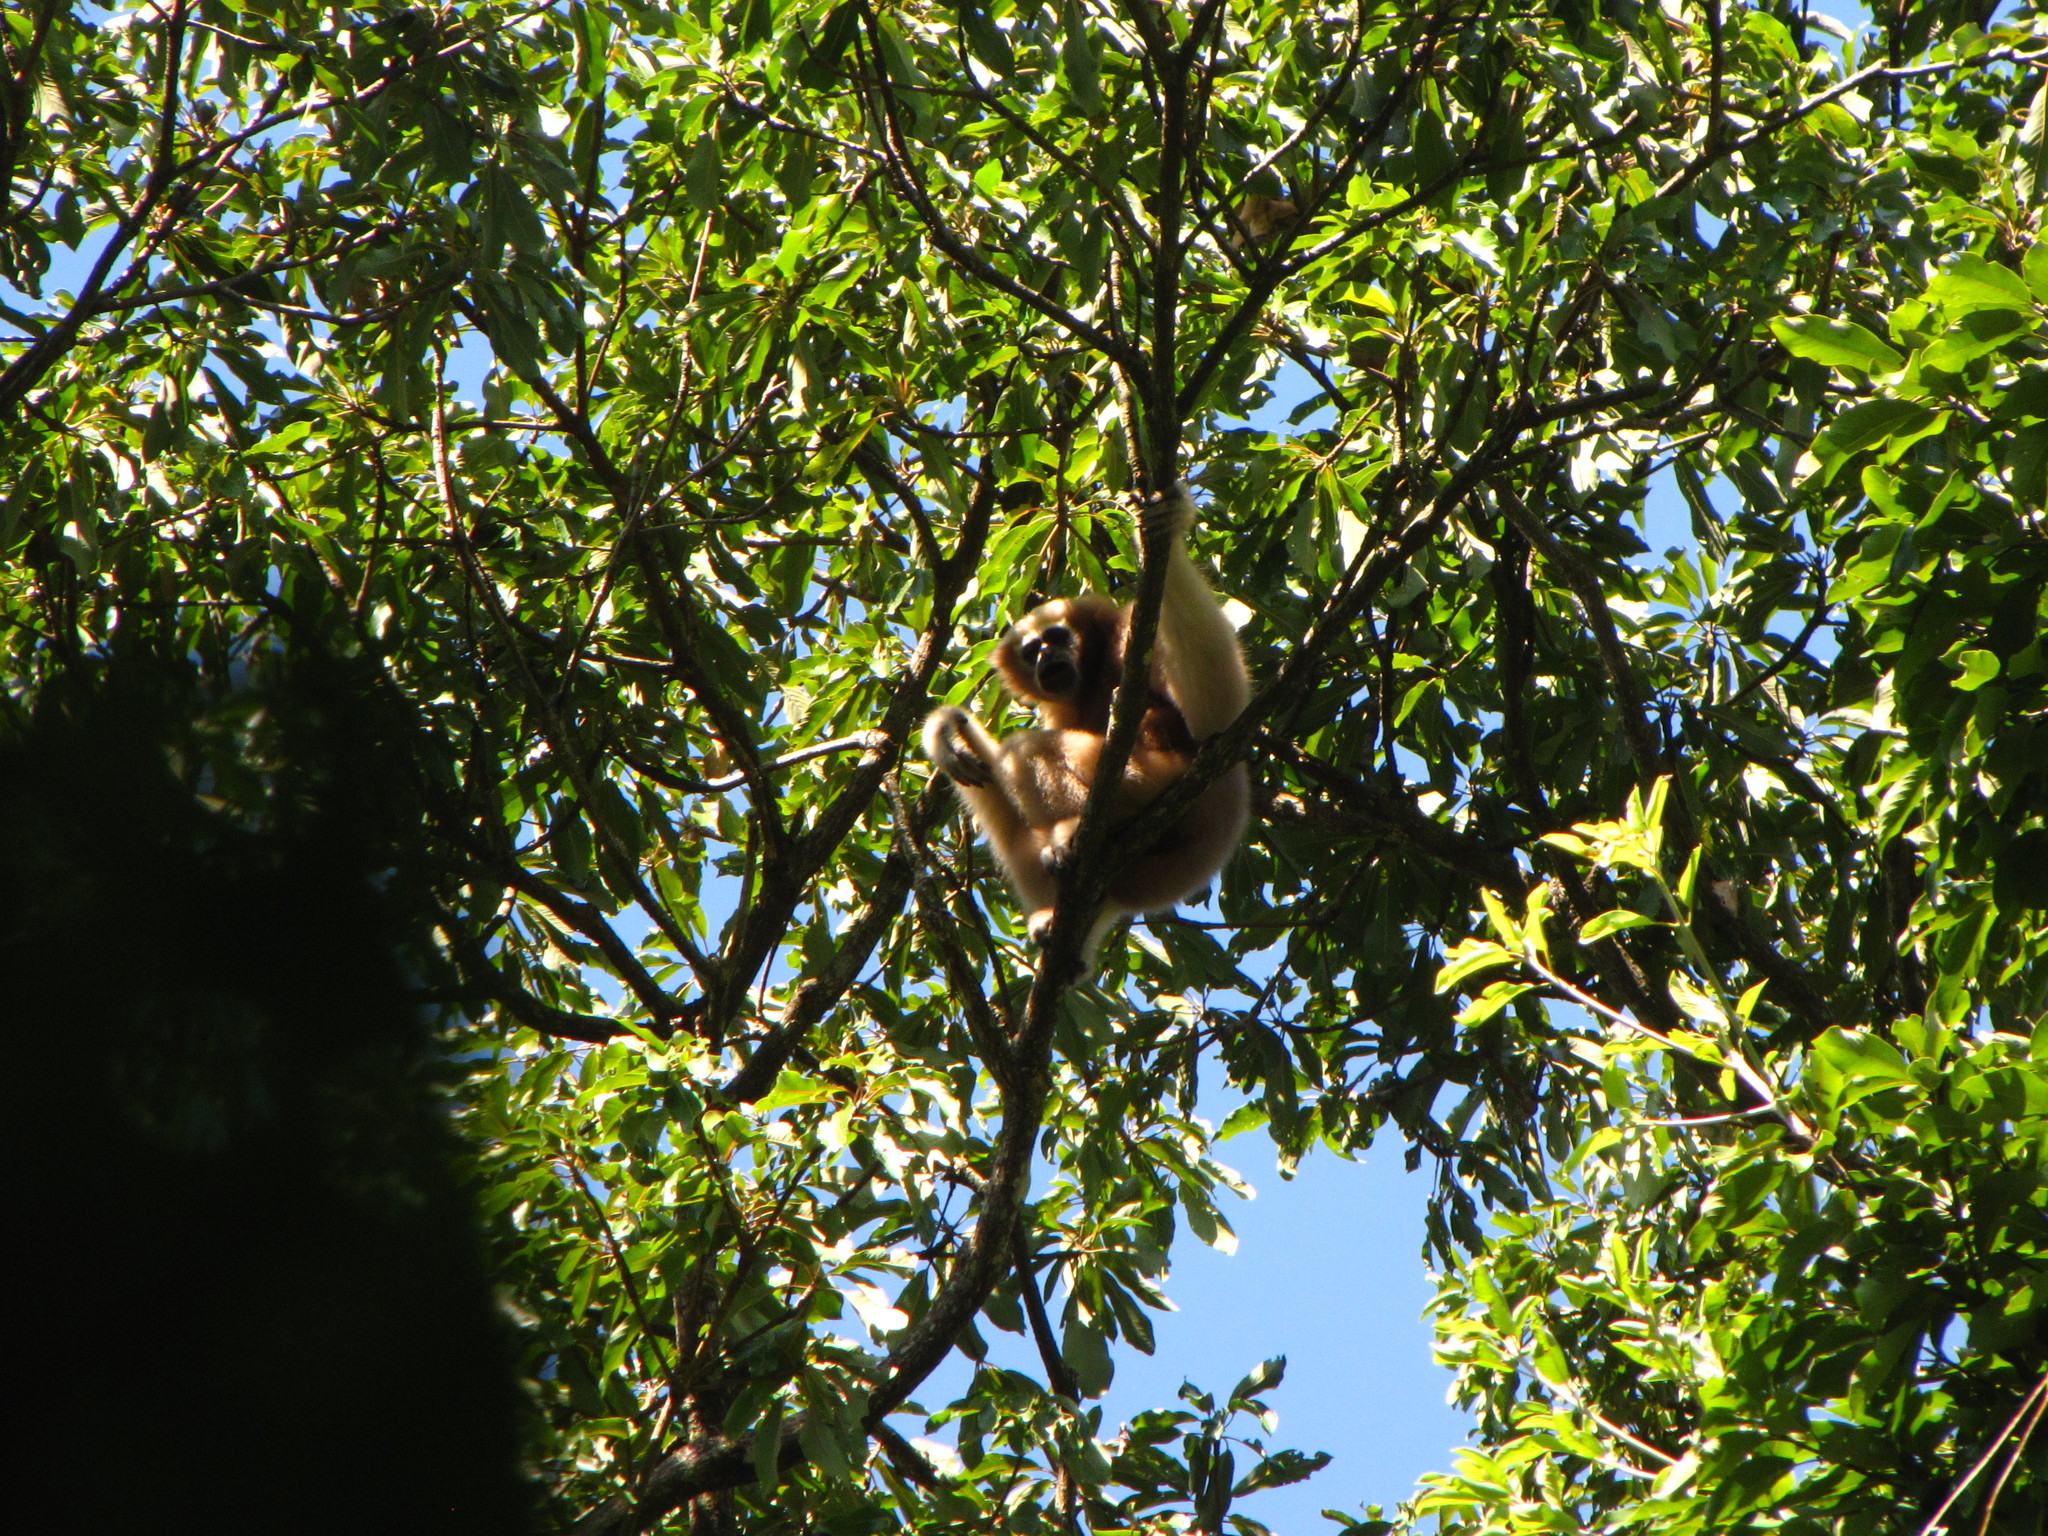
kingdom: Animalia
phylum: Chordata
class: Mammalia
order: Primates
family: Hylobatidae
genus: Hoolock
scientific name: Hoolock hoolock
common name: Western hoolock gibbon
